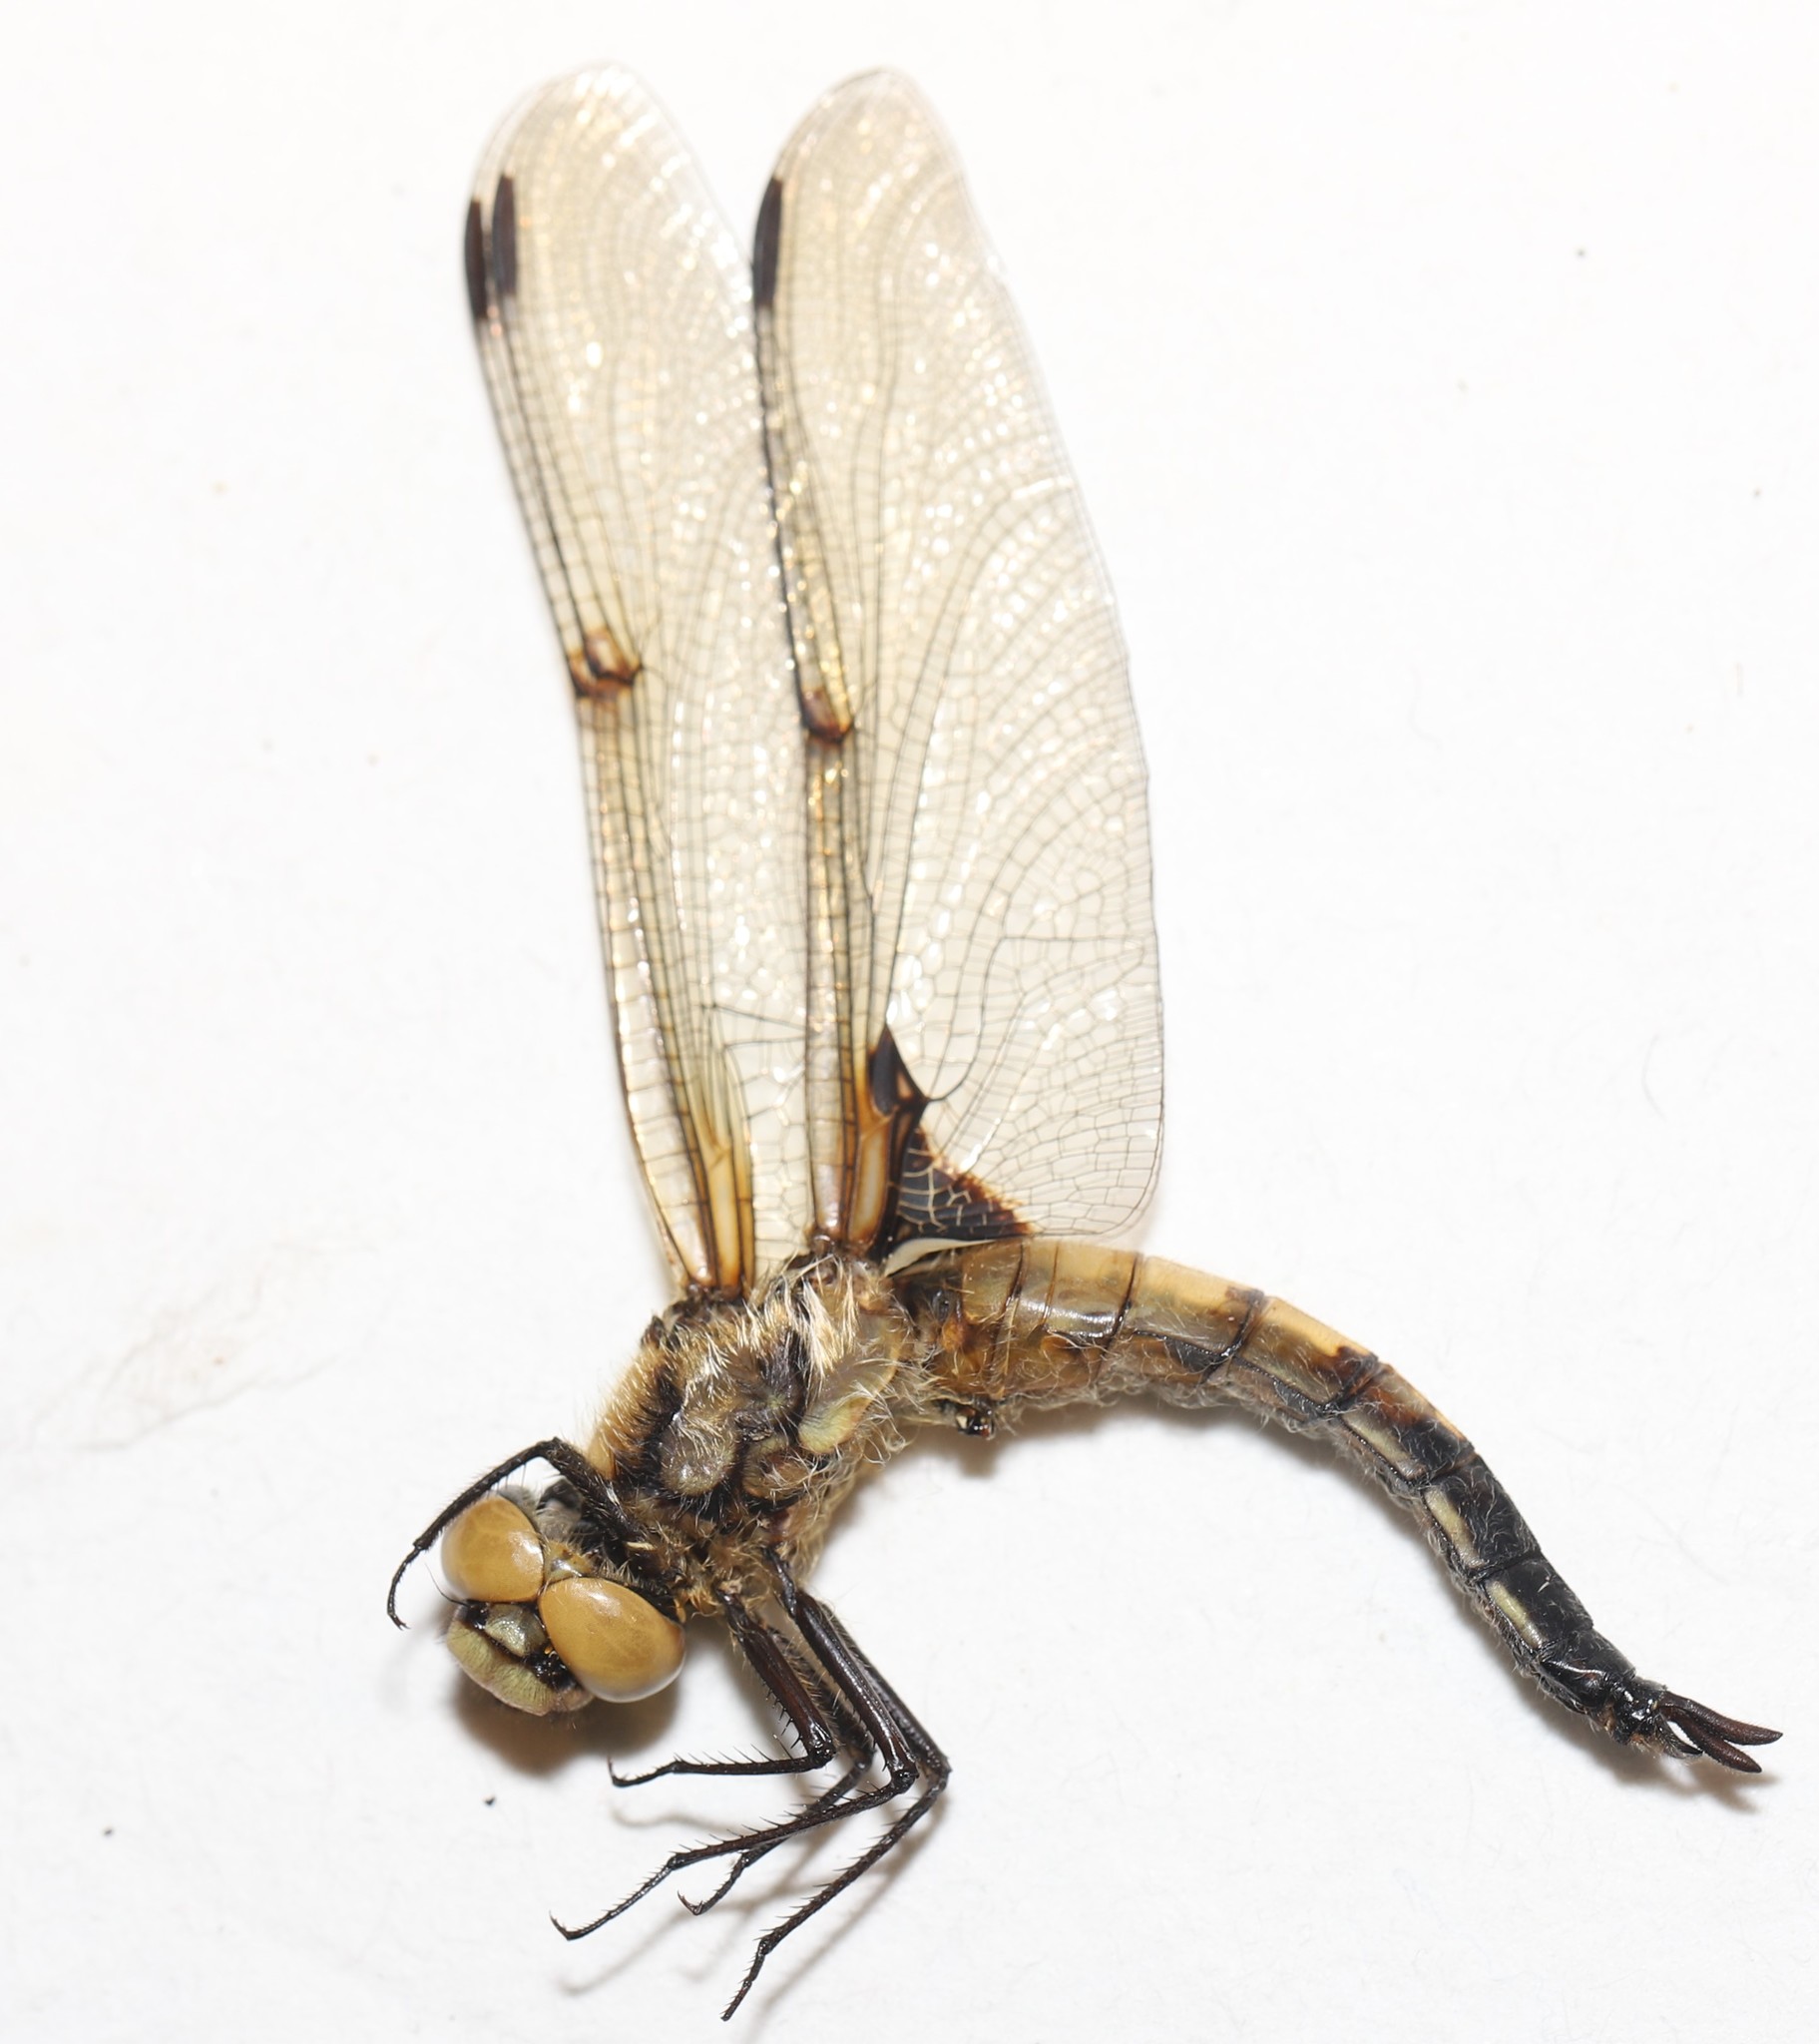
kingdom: Animalia
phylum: Arthropoda
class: Insecta
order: Odonata
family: Libellulidae
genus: Libellula
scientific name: Libellula quadrimaculata
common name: Four-spotted chaser
